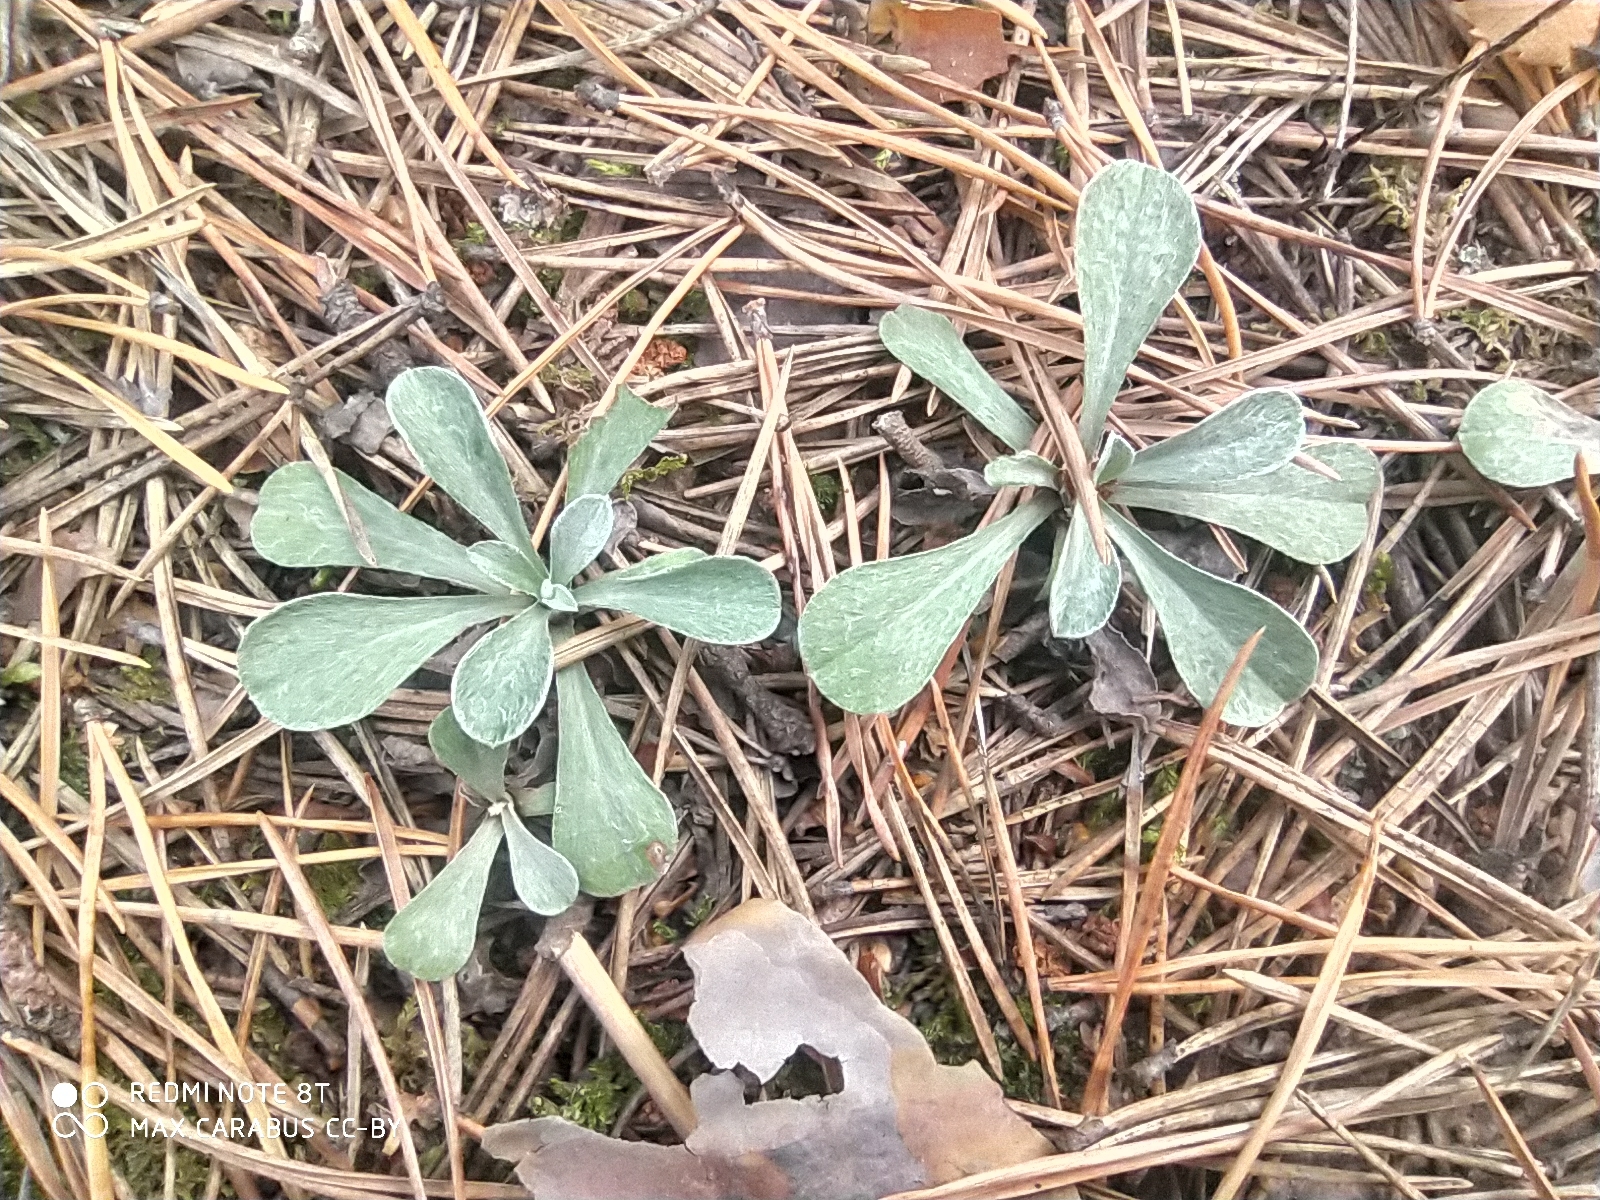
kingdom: Plantae
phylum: Tracheophyta
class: Magnoliopsida
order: Asterales
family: Asteraceae
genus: Antennaria
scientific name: Antennaria dioica
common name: Mountain everlasting
